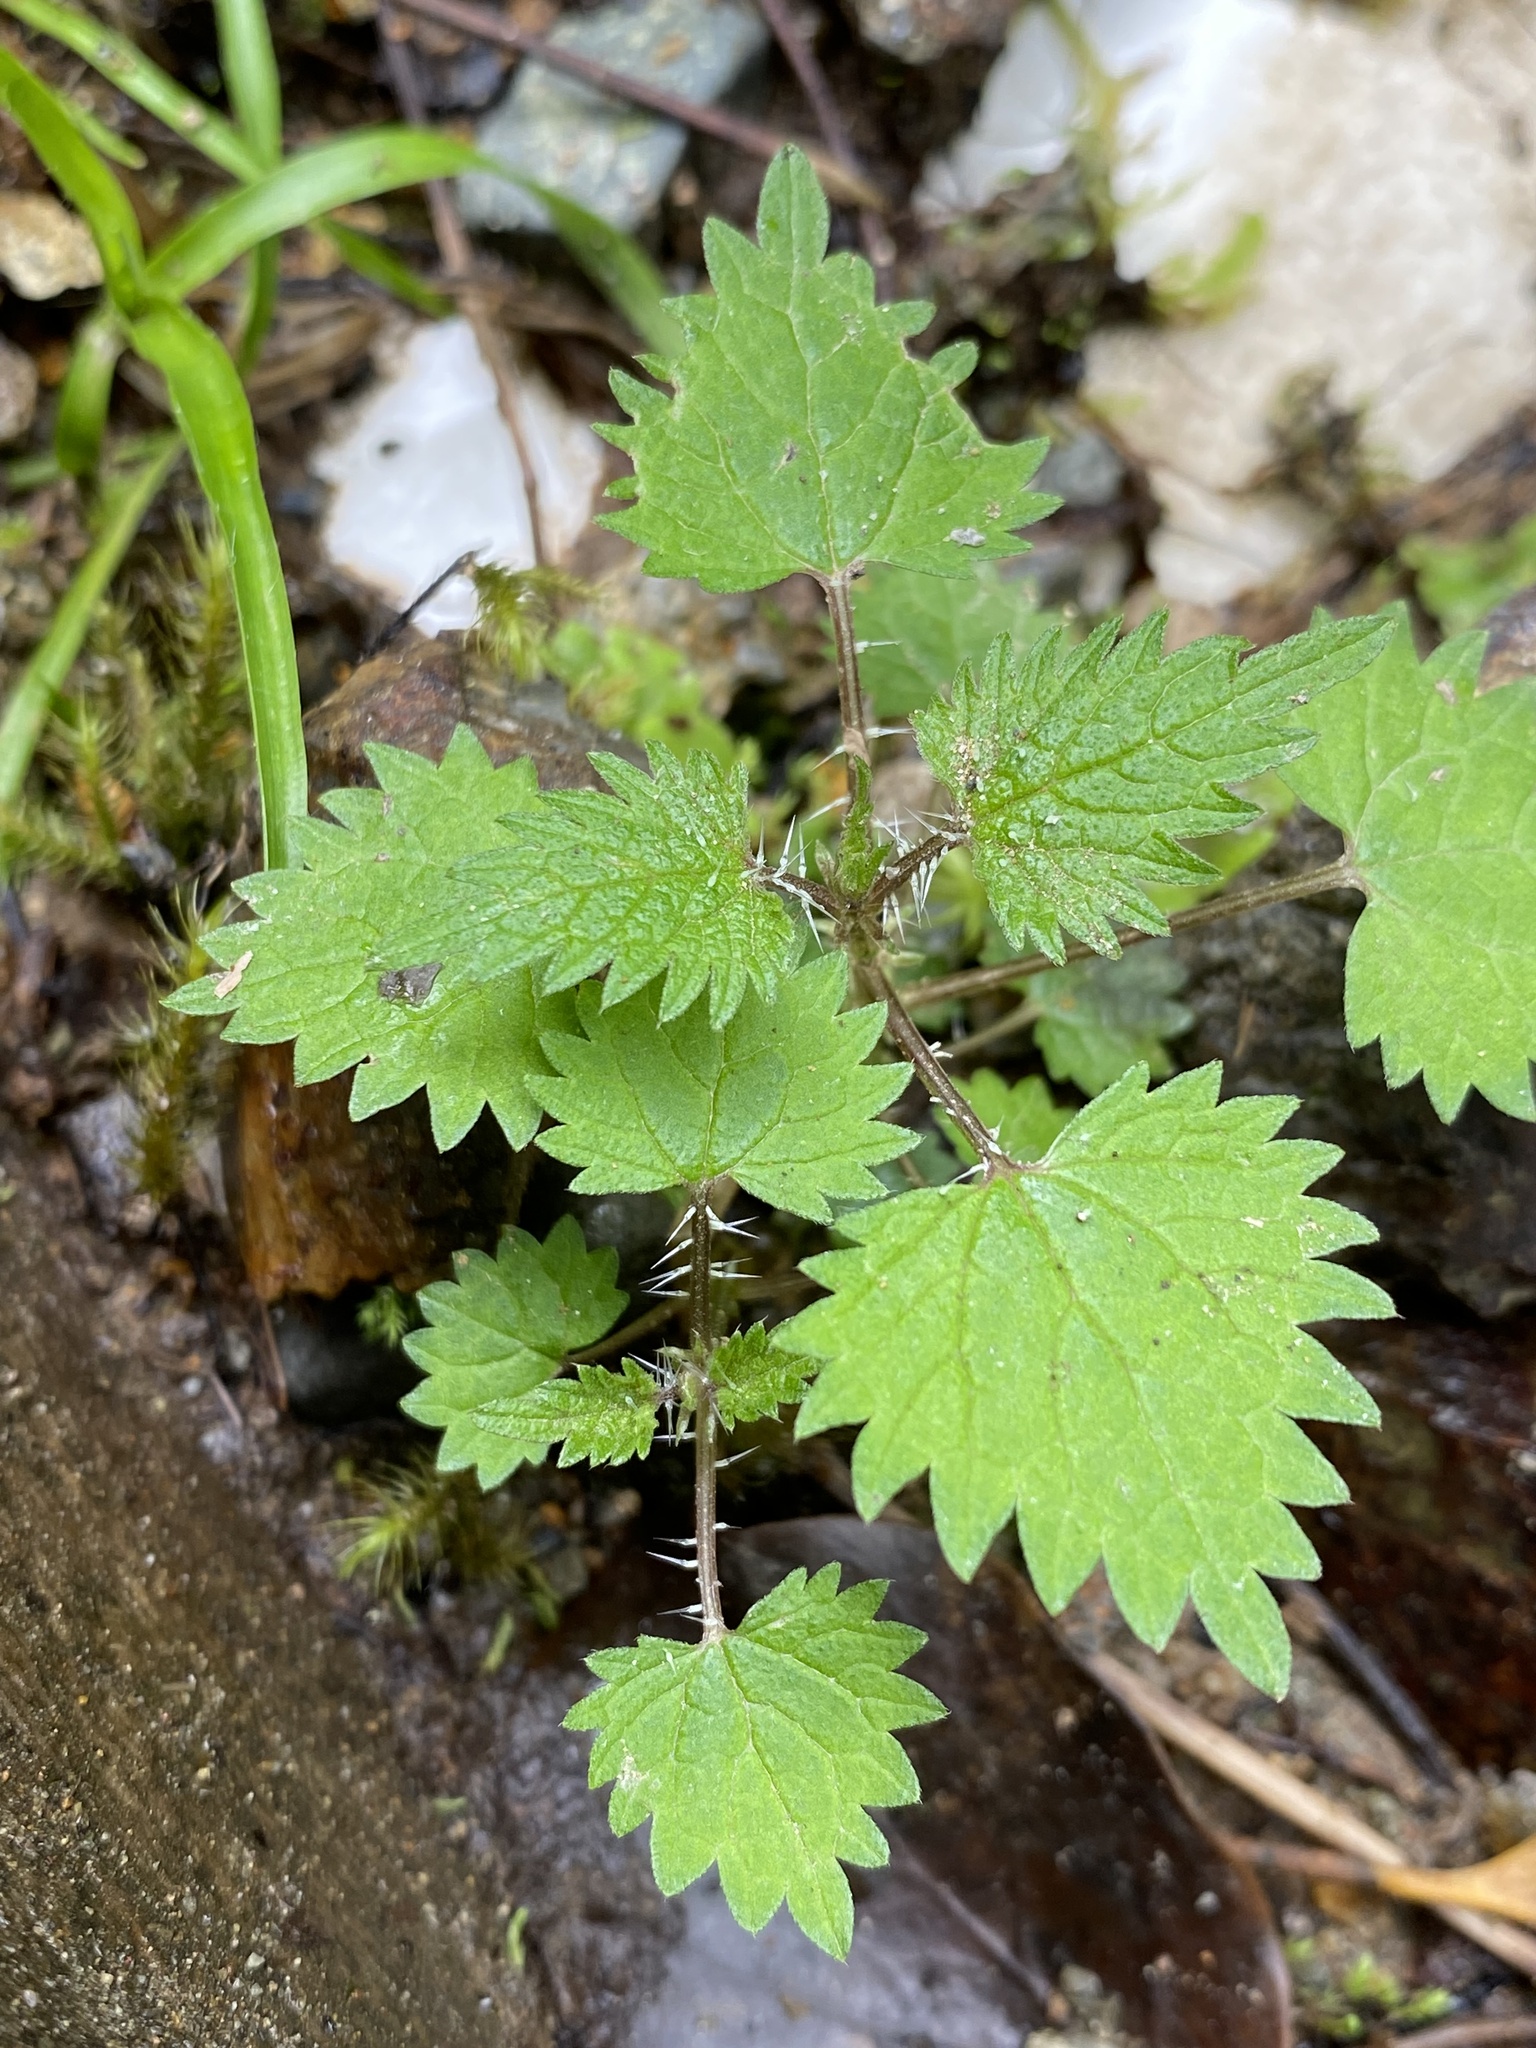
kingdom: Plantae
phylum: Tracheophyta
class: Magnoliopsida
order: Rosales
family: Urticaceae
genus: Urtica
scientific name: Urtica sykesii
